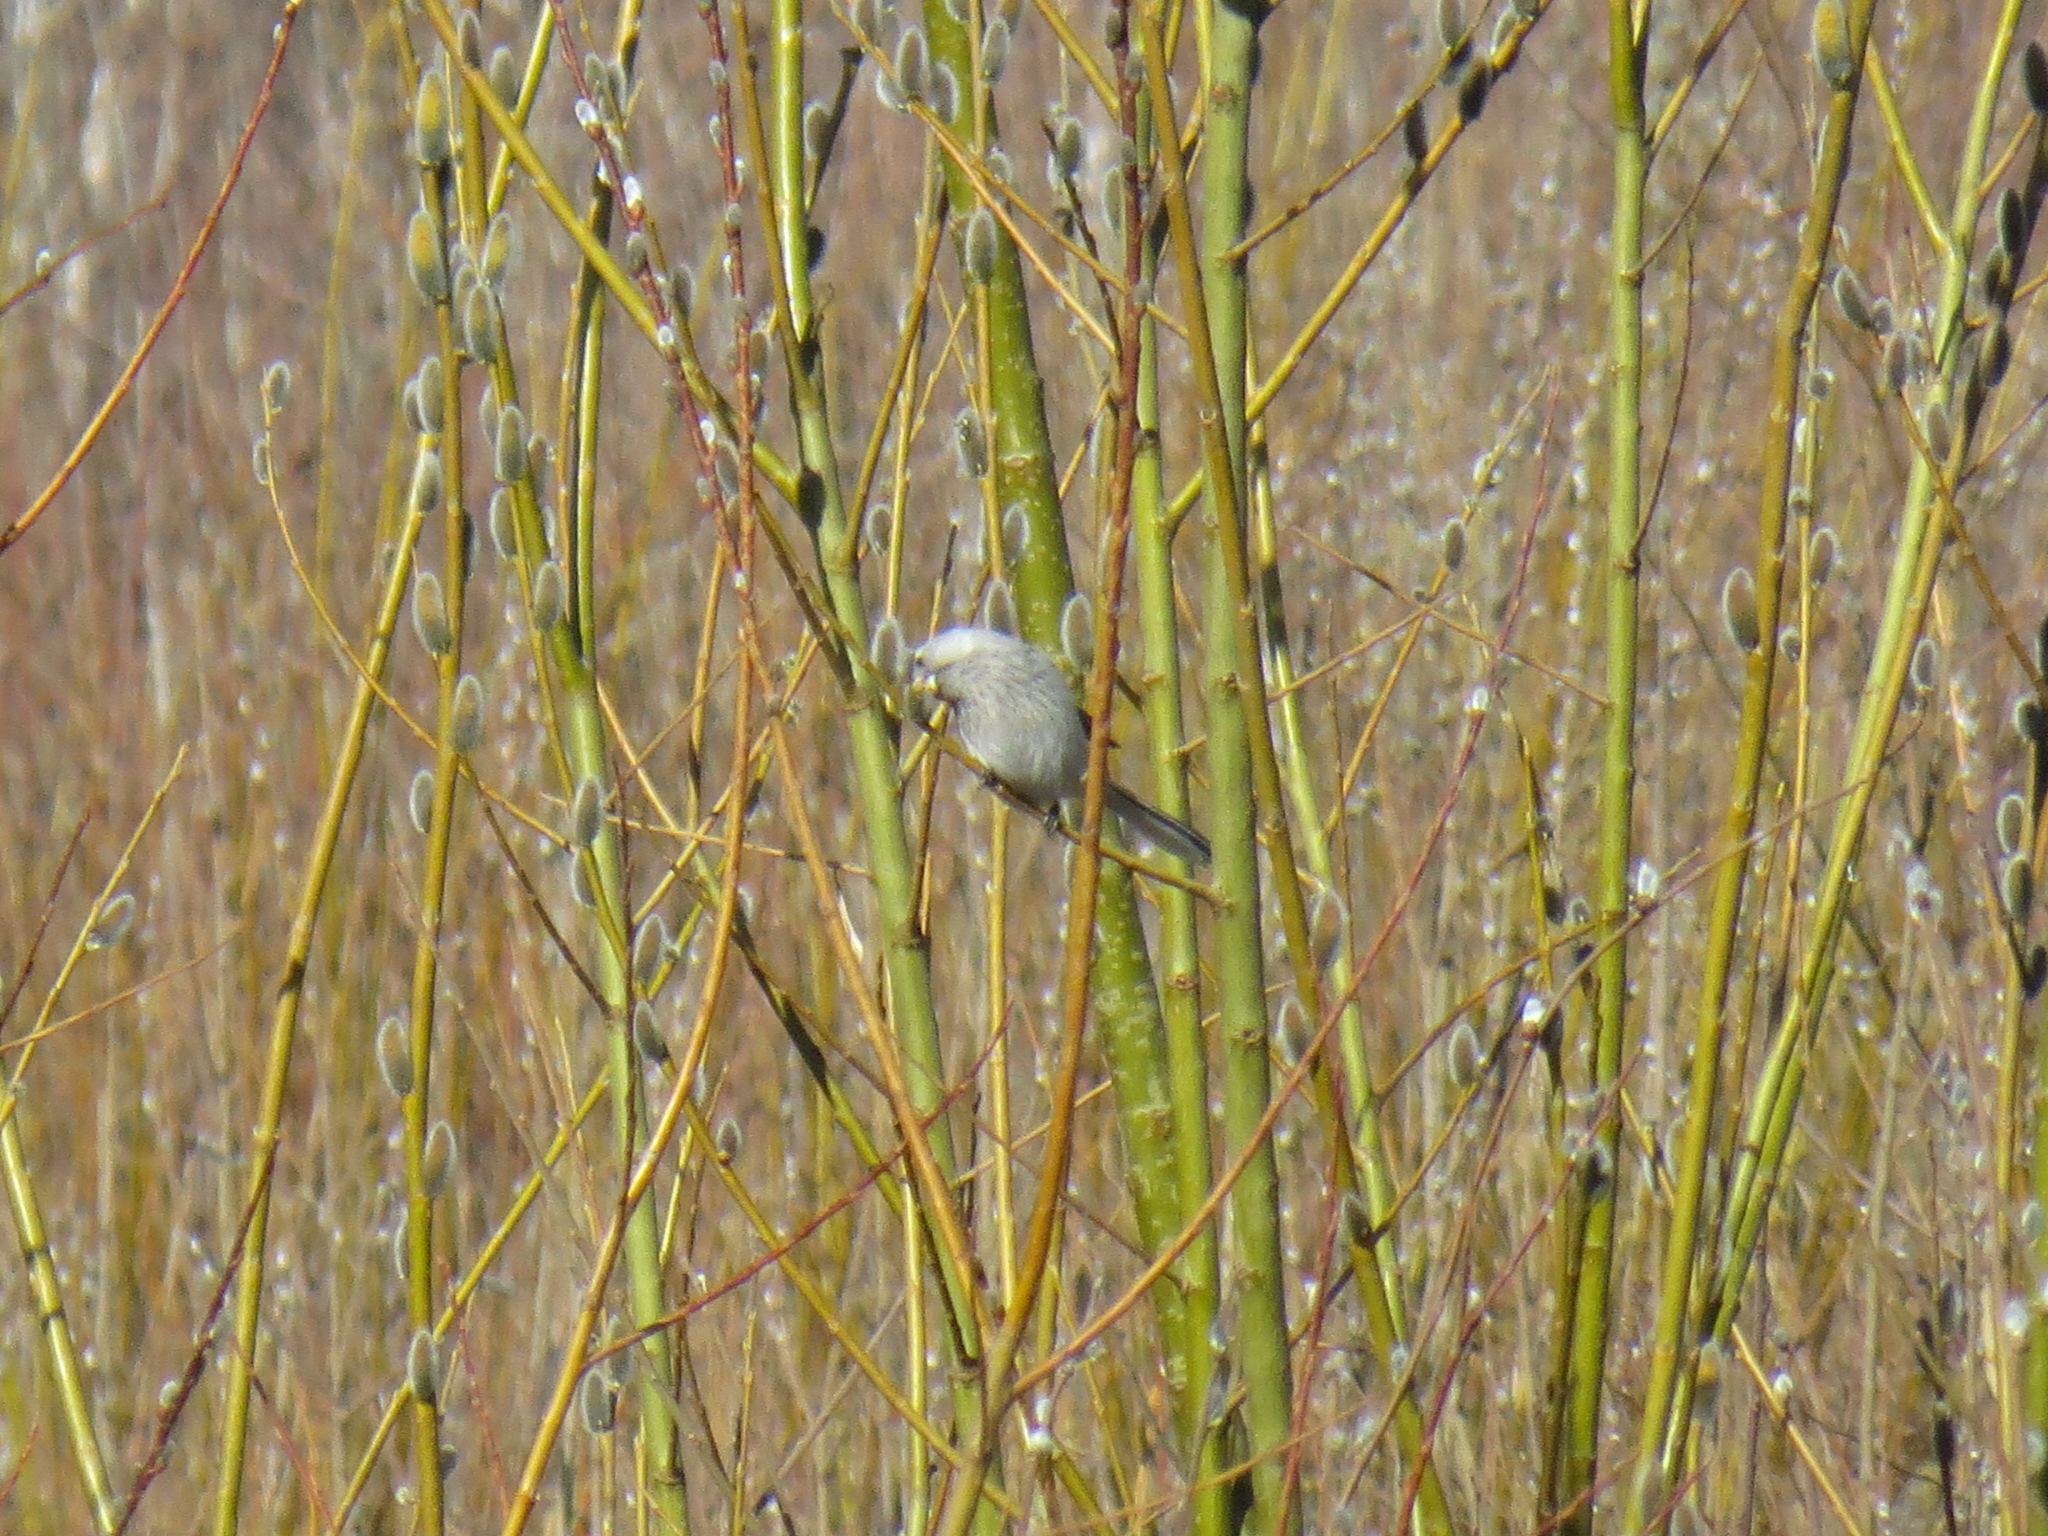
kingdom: Animalia
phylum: Chordata
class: Aves
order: Passeriformes
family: Fringillidae
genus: Carpodacus
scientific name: Carpodacus sibiricus
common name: Long-tailed rosefinch
